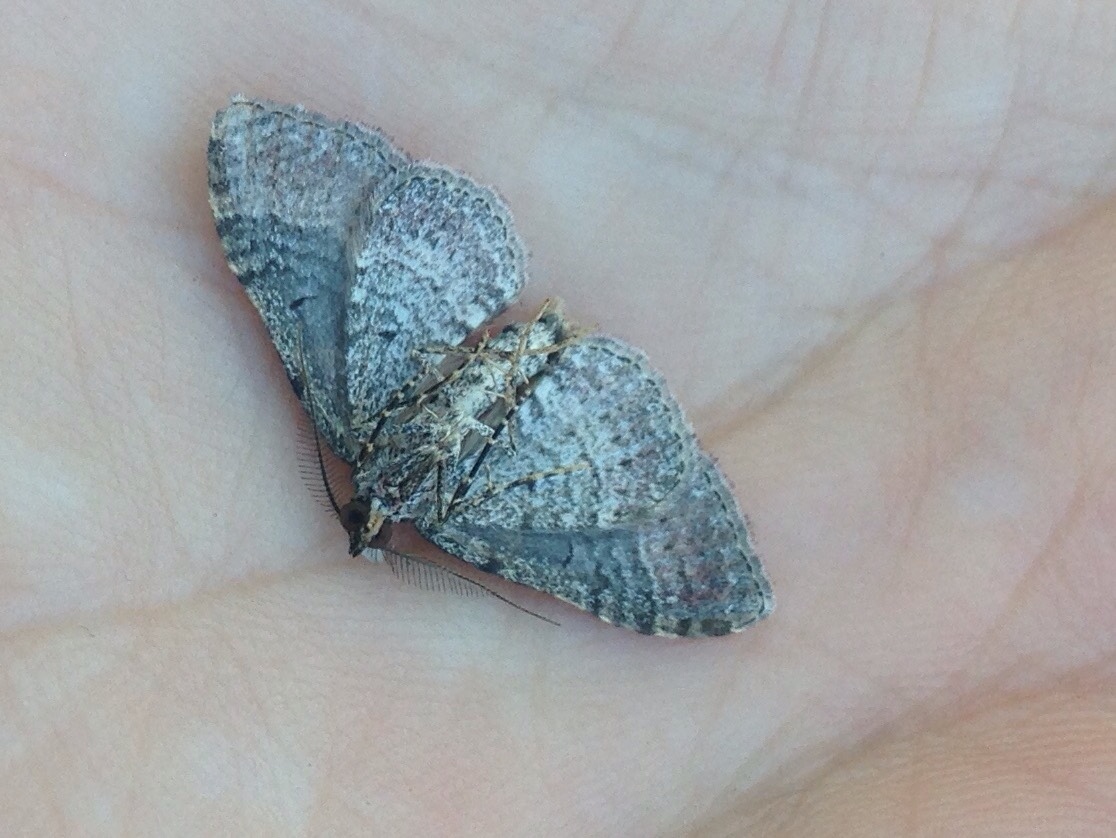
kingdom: Animalia
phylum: Arthropoda
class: Insecta
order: Lepidoptera
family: Geometridae
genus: Epyaxa
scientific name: Epyaxa lucidata
